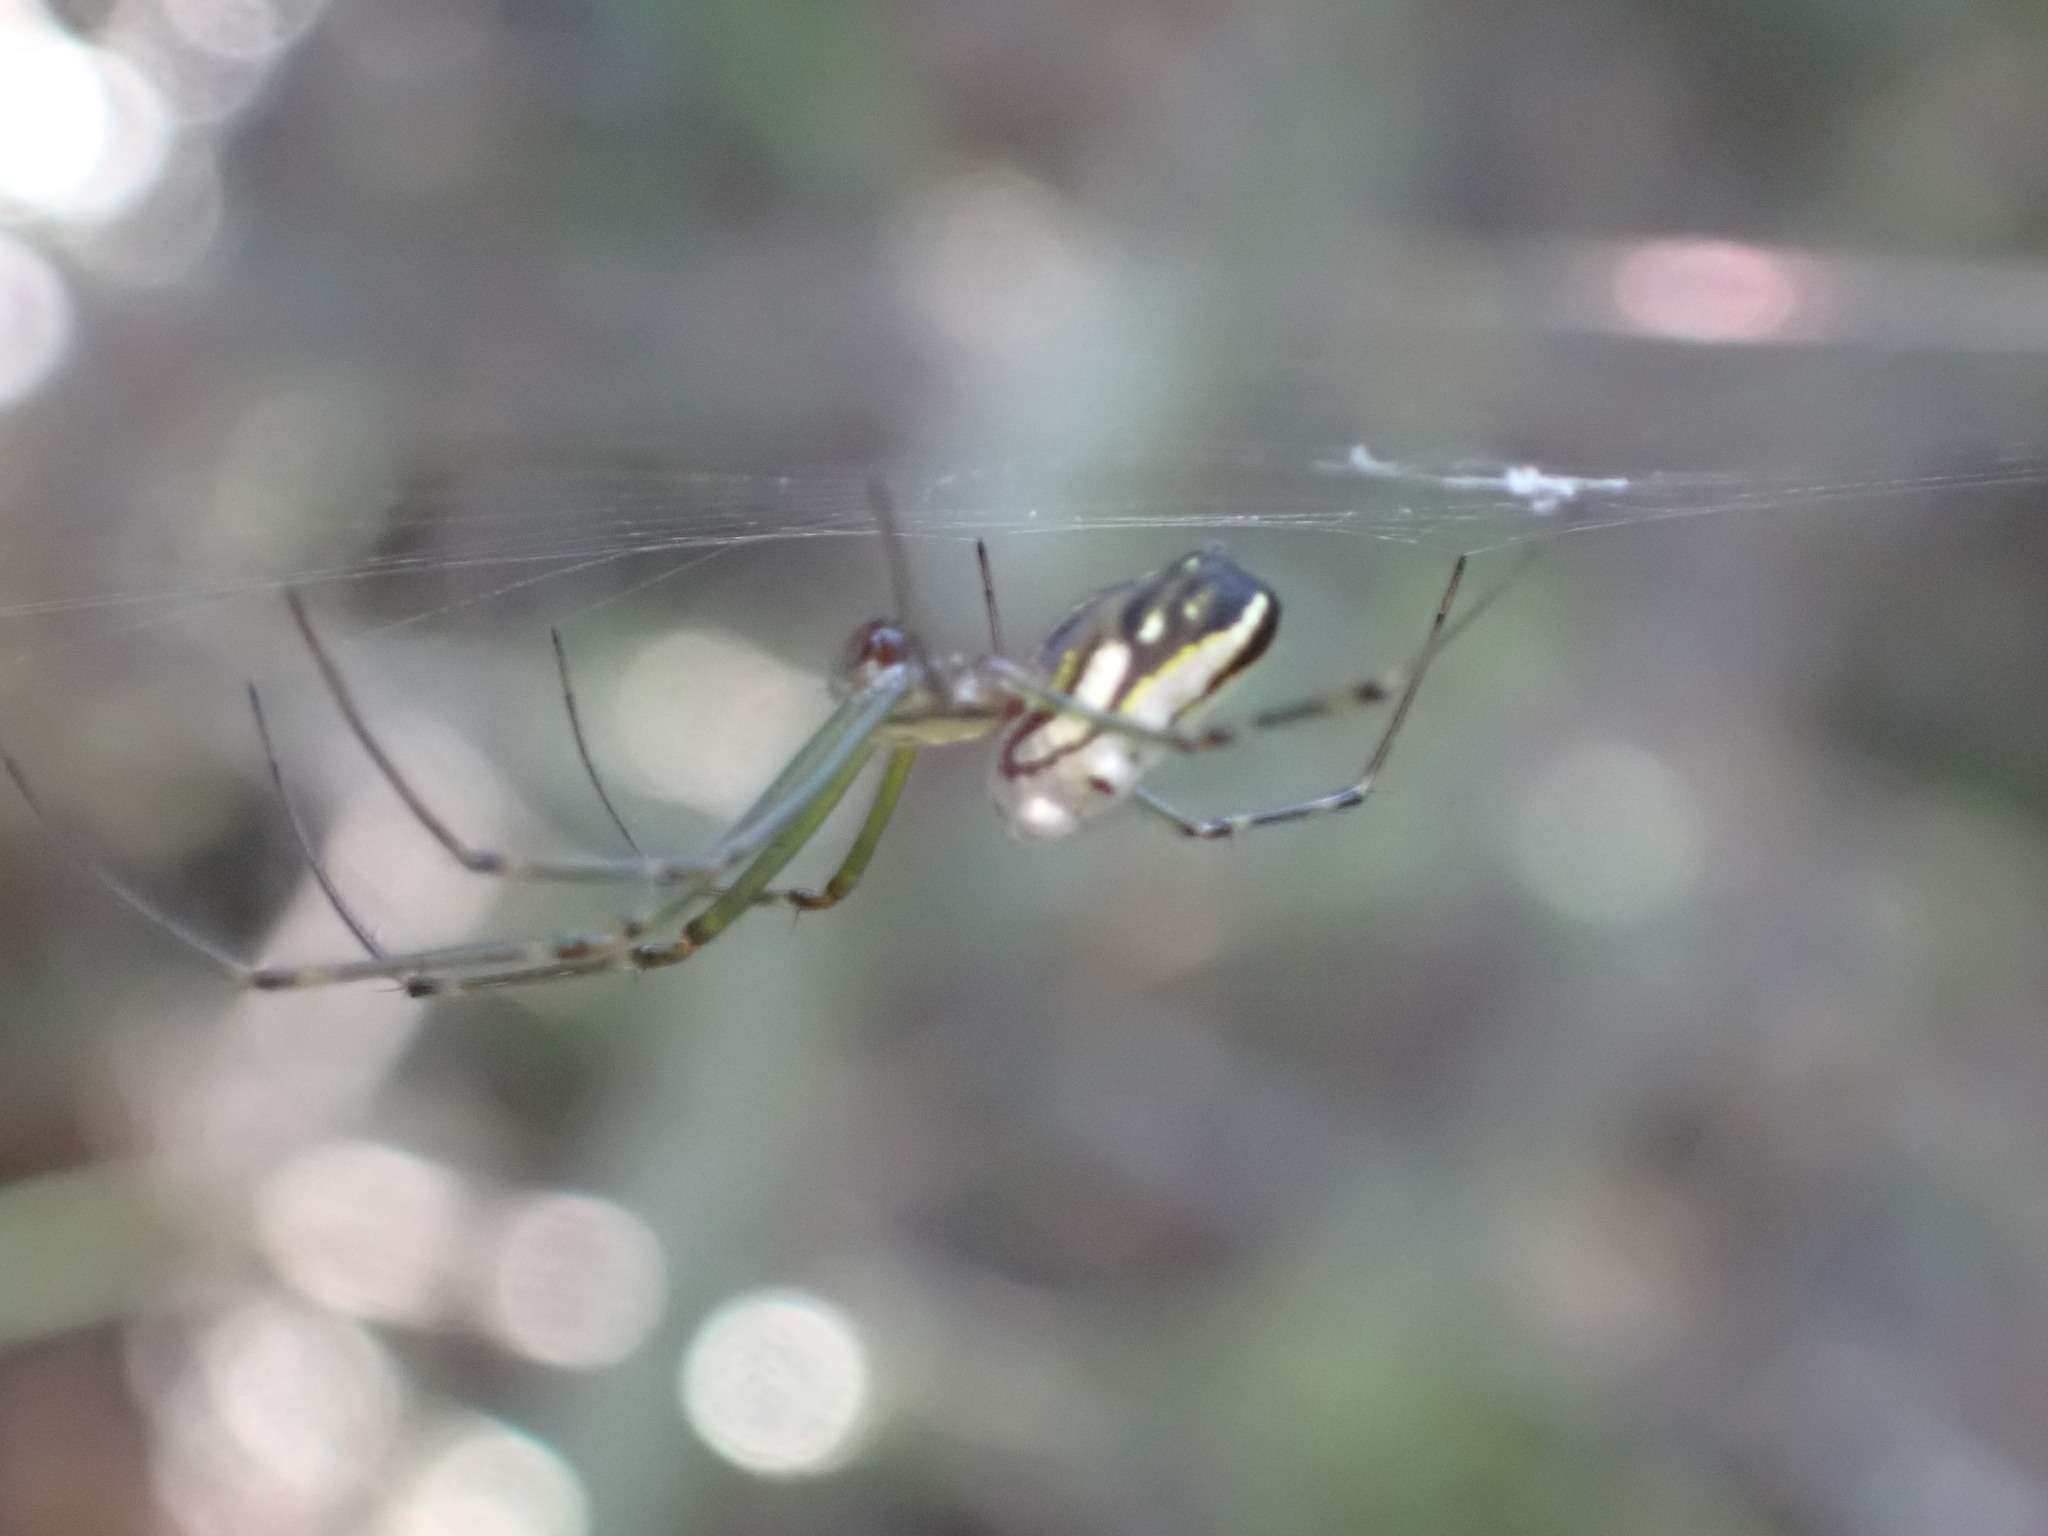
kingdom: Animalia
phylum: Arthropoda
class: Arachnida
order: Araneae
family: Tetragnathidae
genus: Leucauge
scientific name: Leucauge dromedaria
